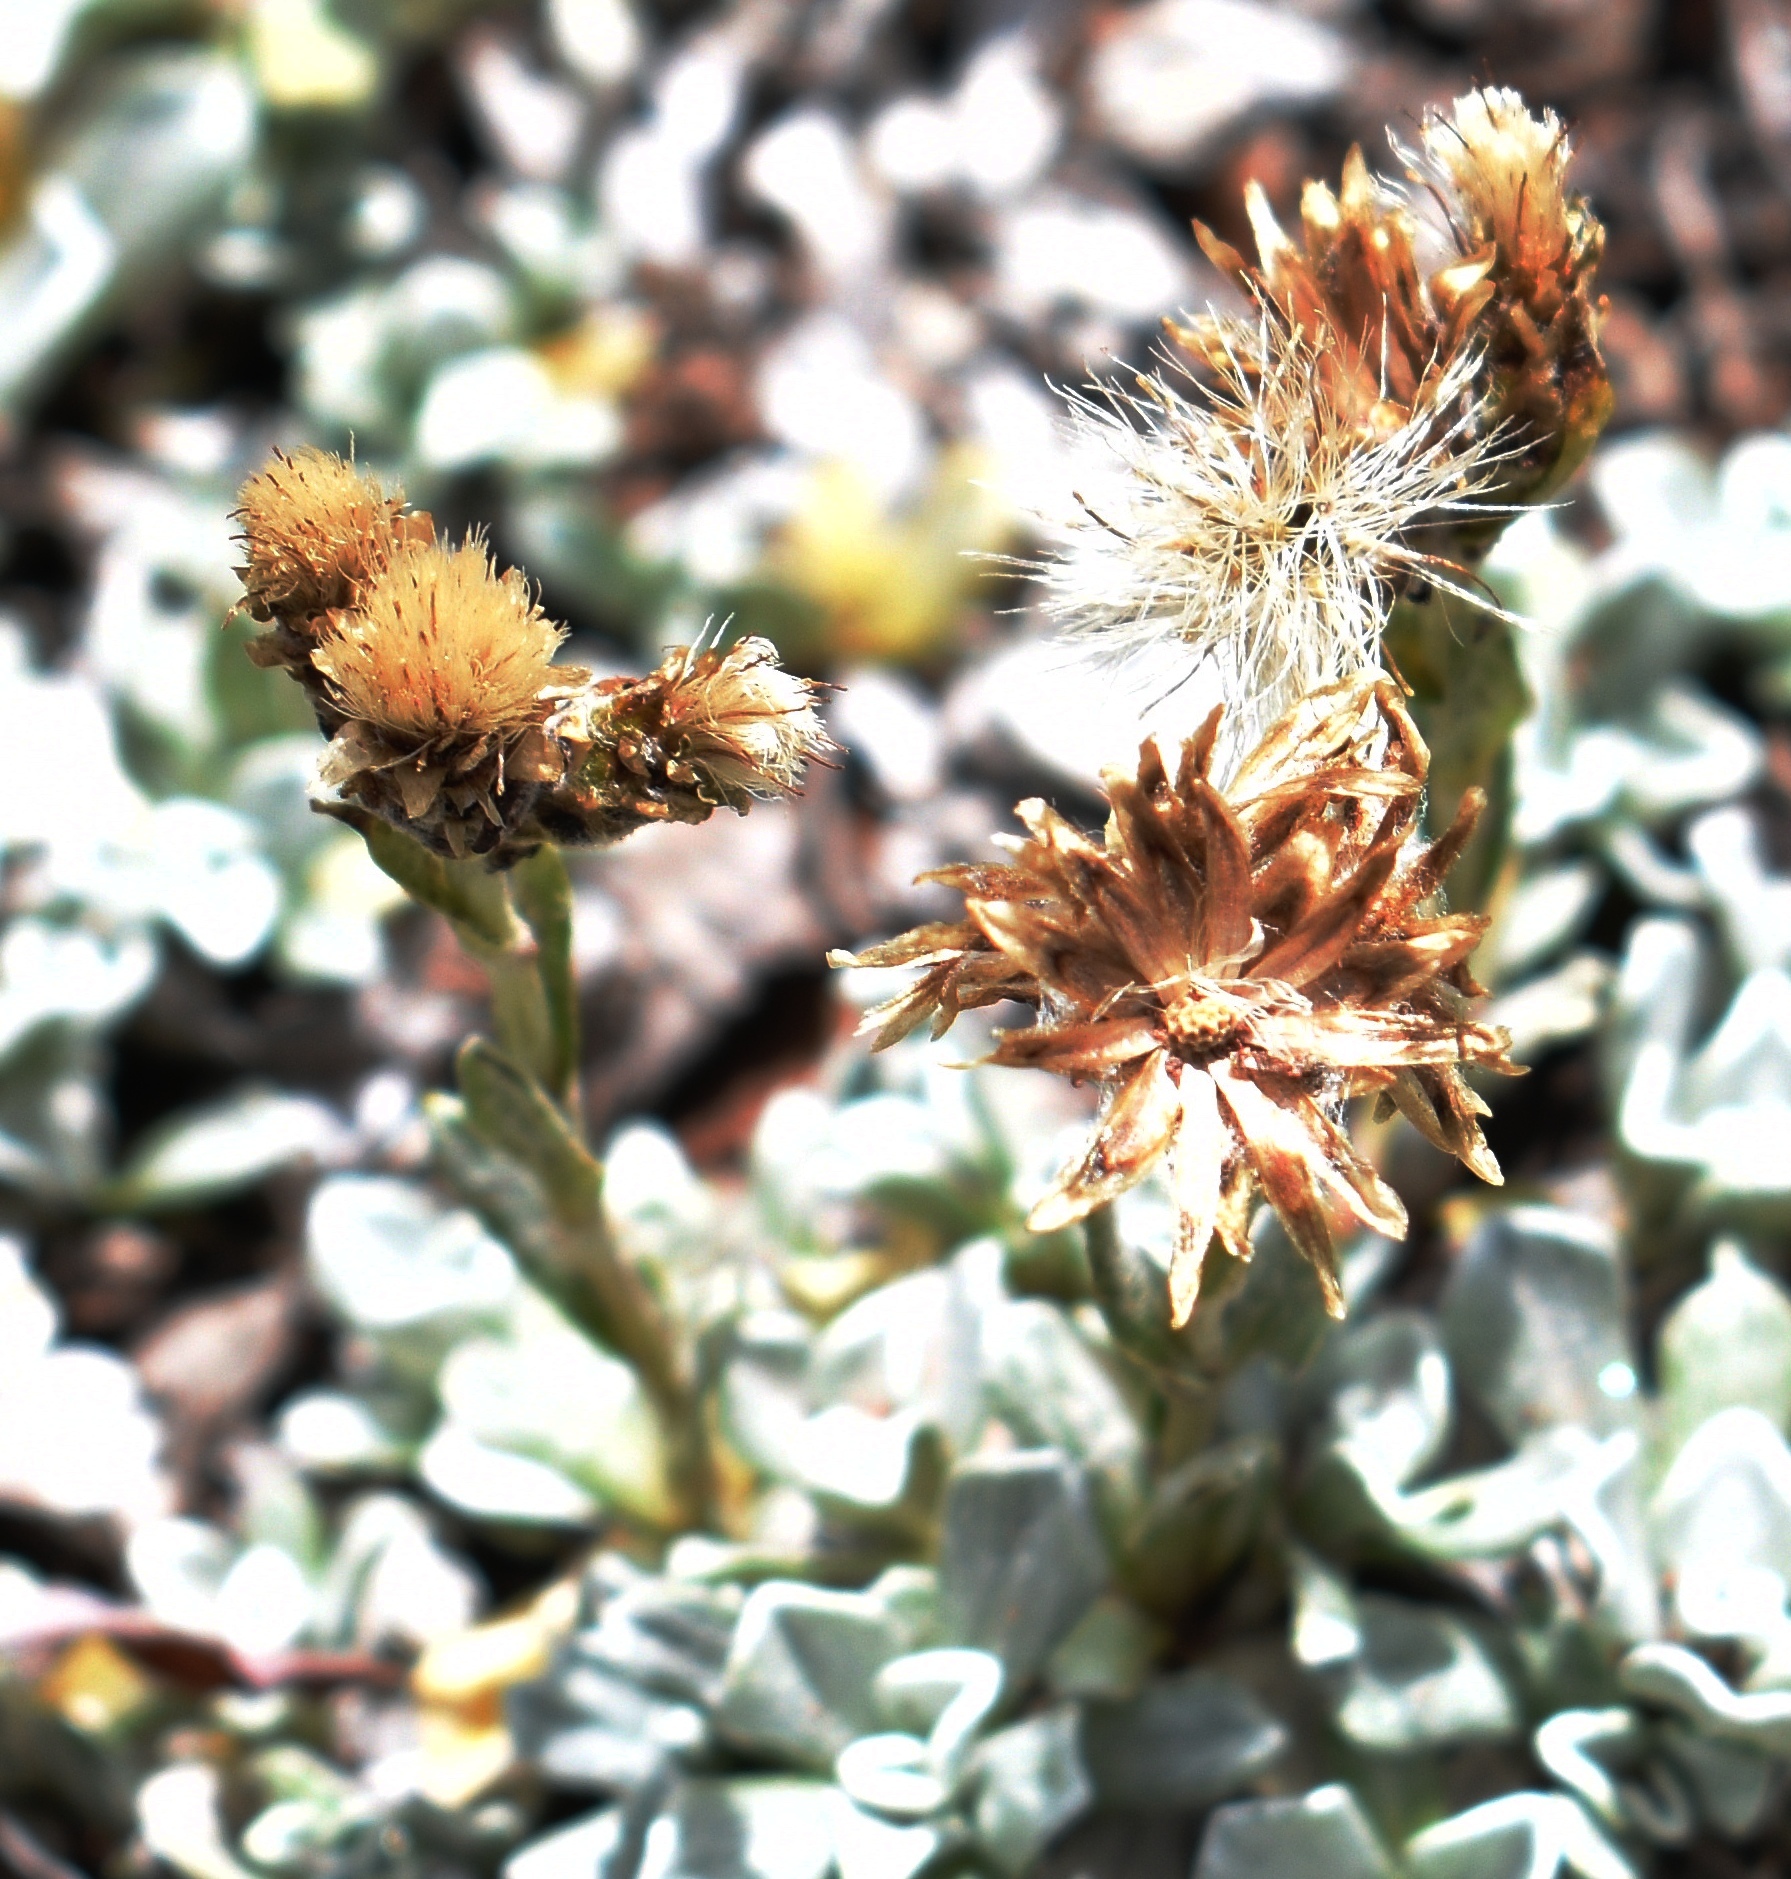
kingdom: Plantae
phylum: Tracheophyta
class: Magnoliopsida
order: Asterales
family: Asteraceae
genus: Antennaria
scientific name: Antennaria media
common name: Rocky mountain pussytoes
